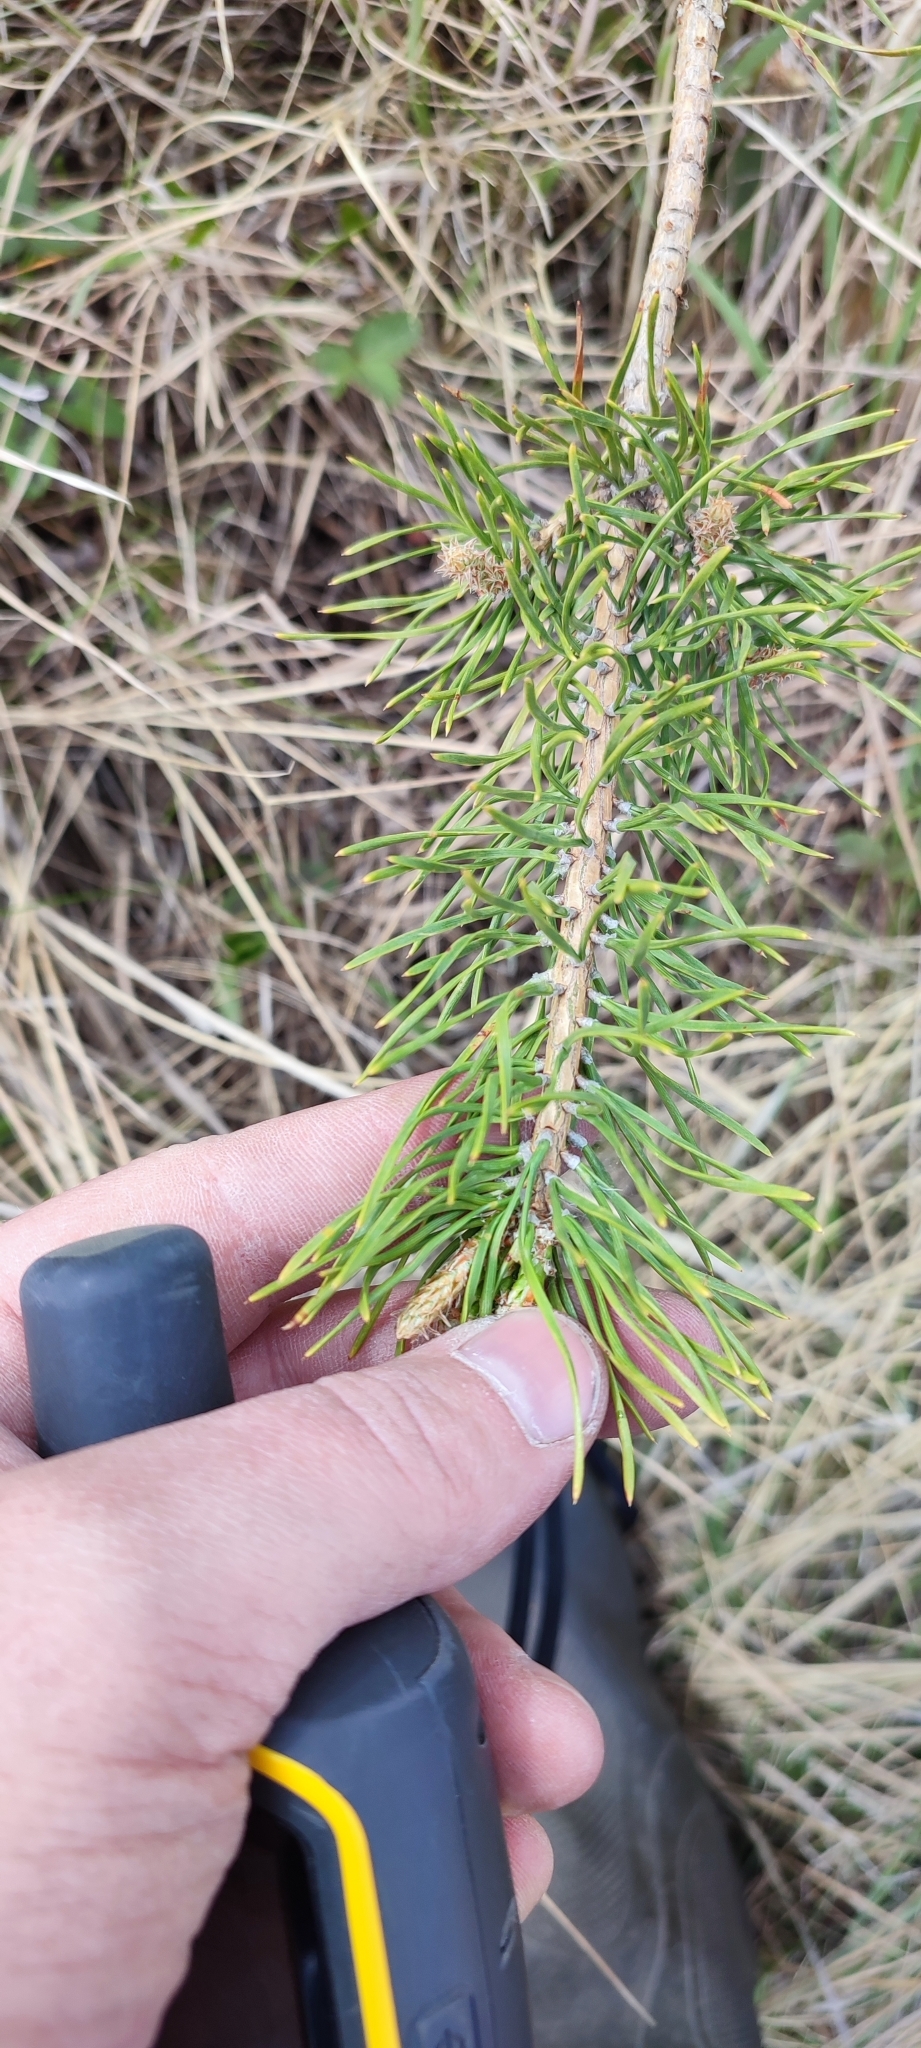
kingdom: Plantae
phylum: Tracheophyta
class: Pinopsida
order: Pinales
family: Pinaceae
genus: Pinus
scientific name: Pinus sylvestris
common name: Scots pine
